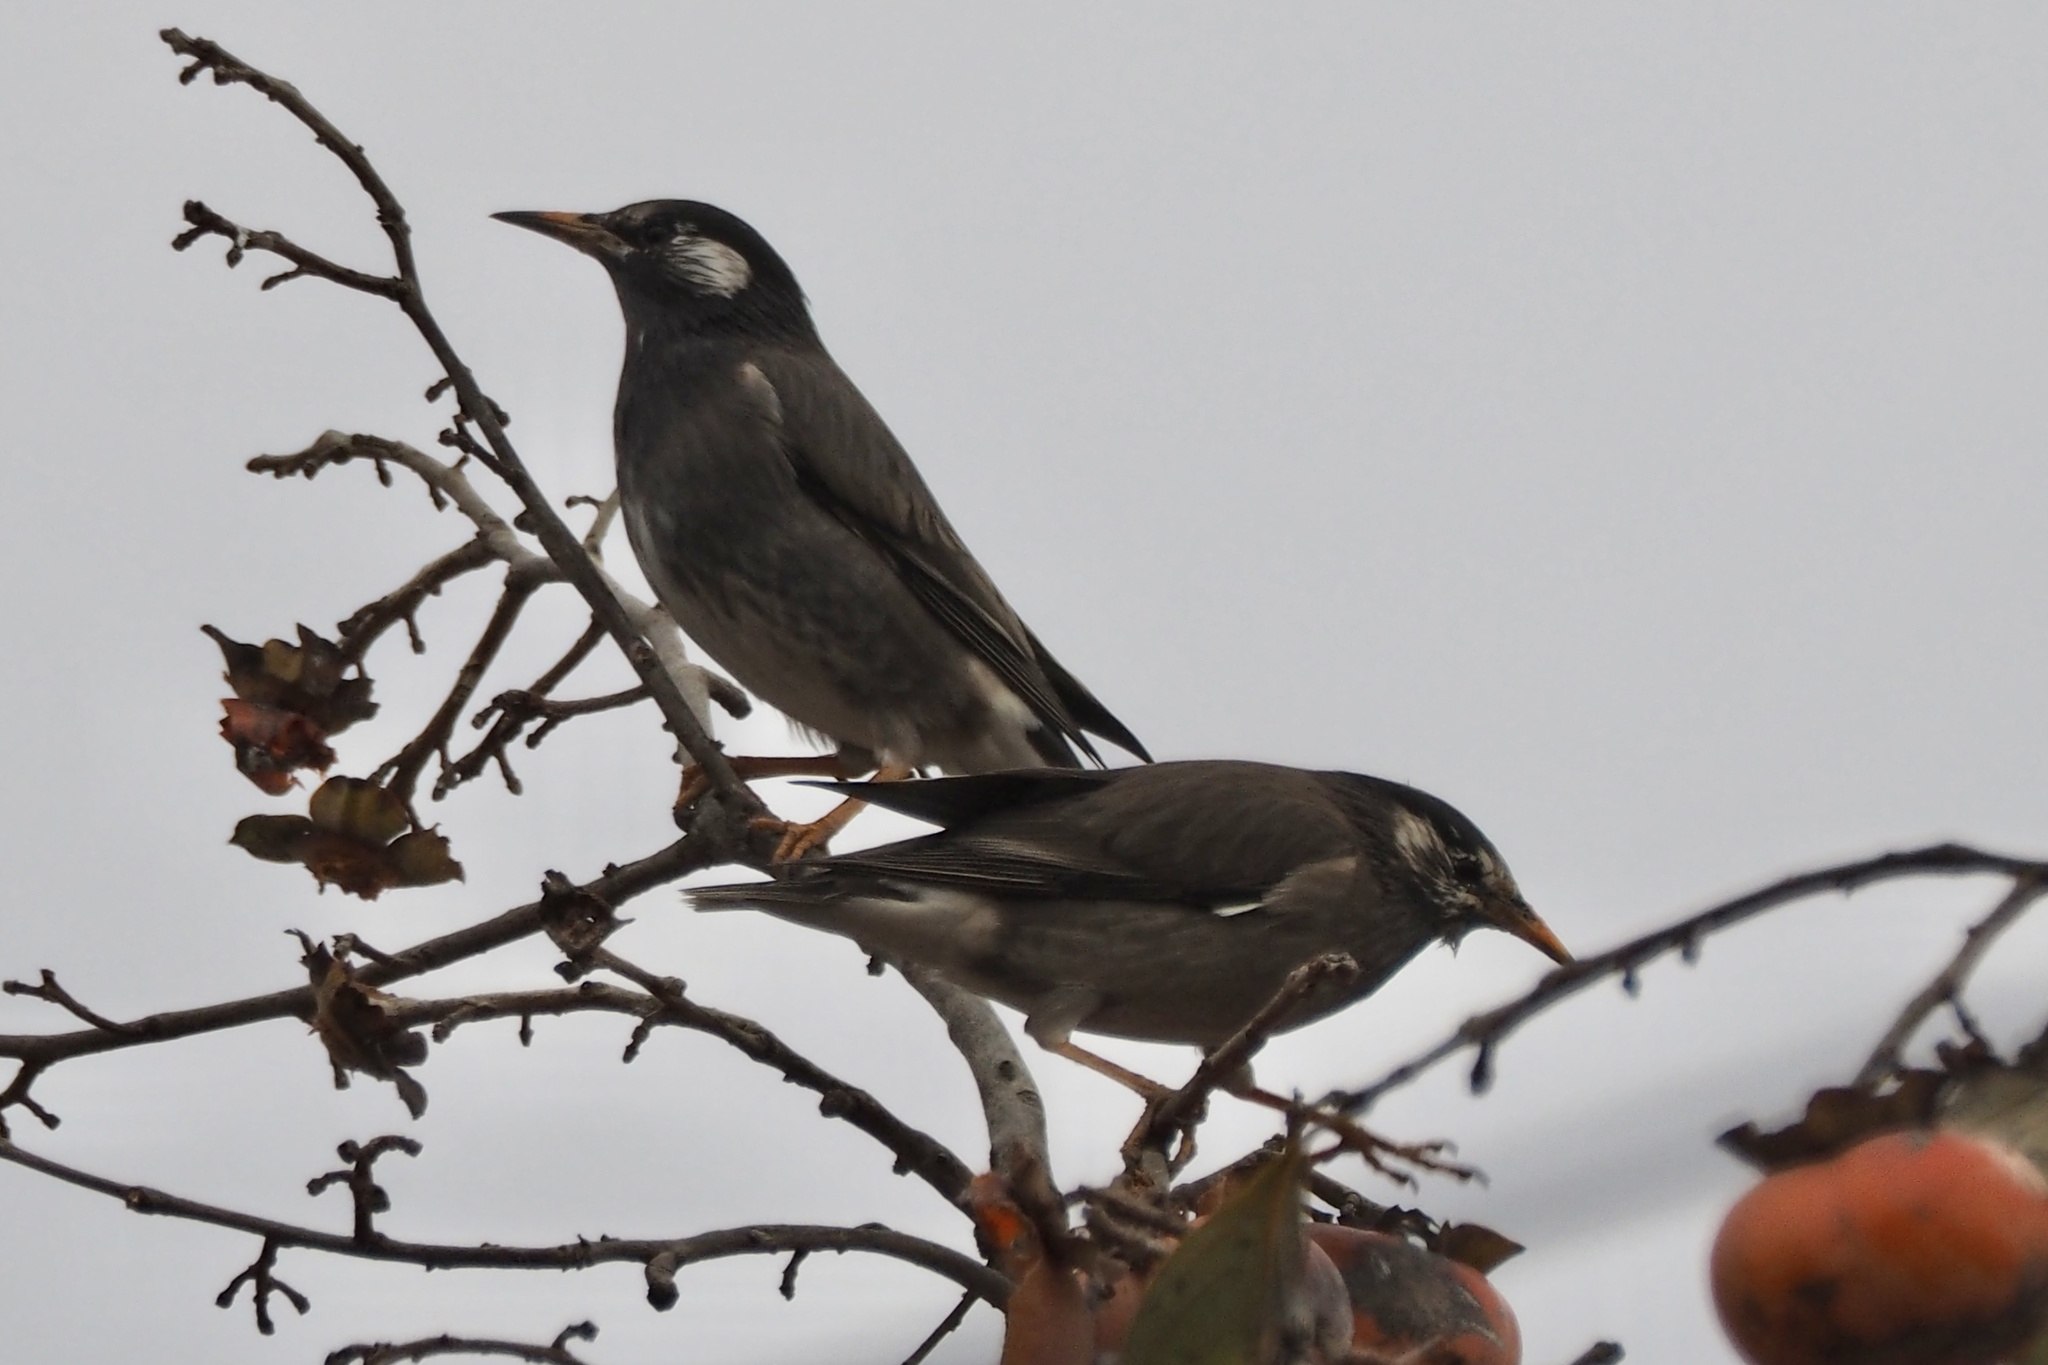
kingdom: Animalia
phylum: Chordata
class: Aves
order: Passeriformes
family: Sturnidae
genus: Spodiopsar
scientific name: Spodiopsar cineraceus
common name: White-cheeked starling
